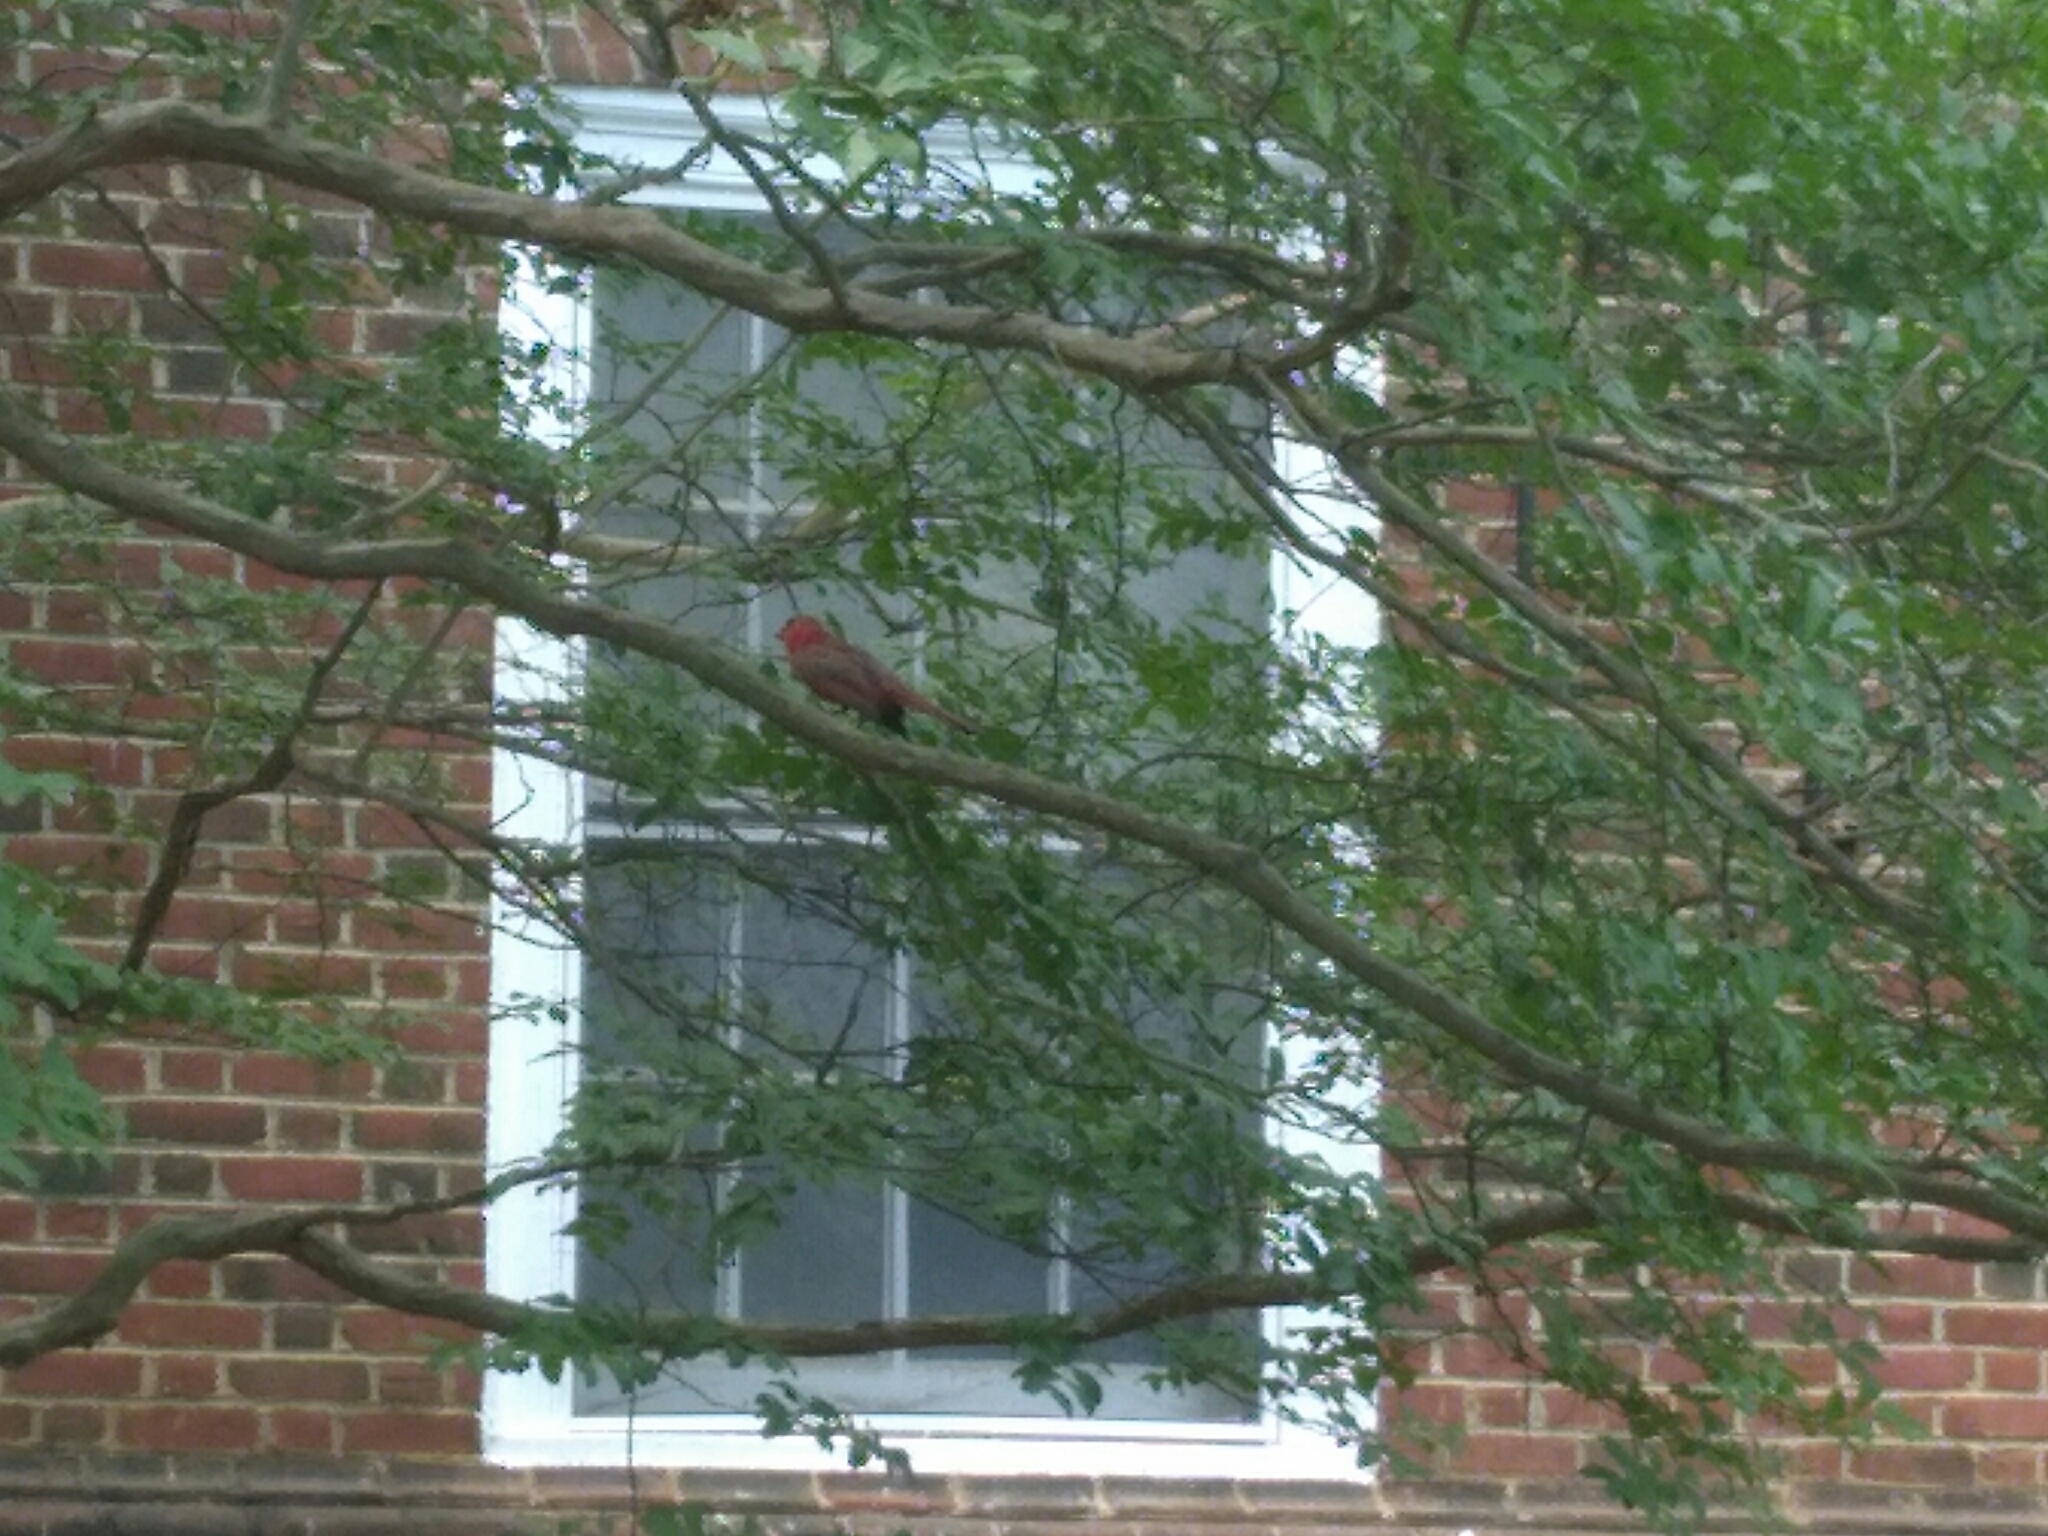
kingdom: Animalia
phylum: Chordata
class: Aves
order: Passeriformes
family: Cardinalidae
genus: Cardinalis
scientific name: Cardinalis cardinalis
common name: Northern cardinal
